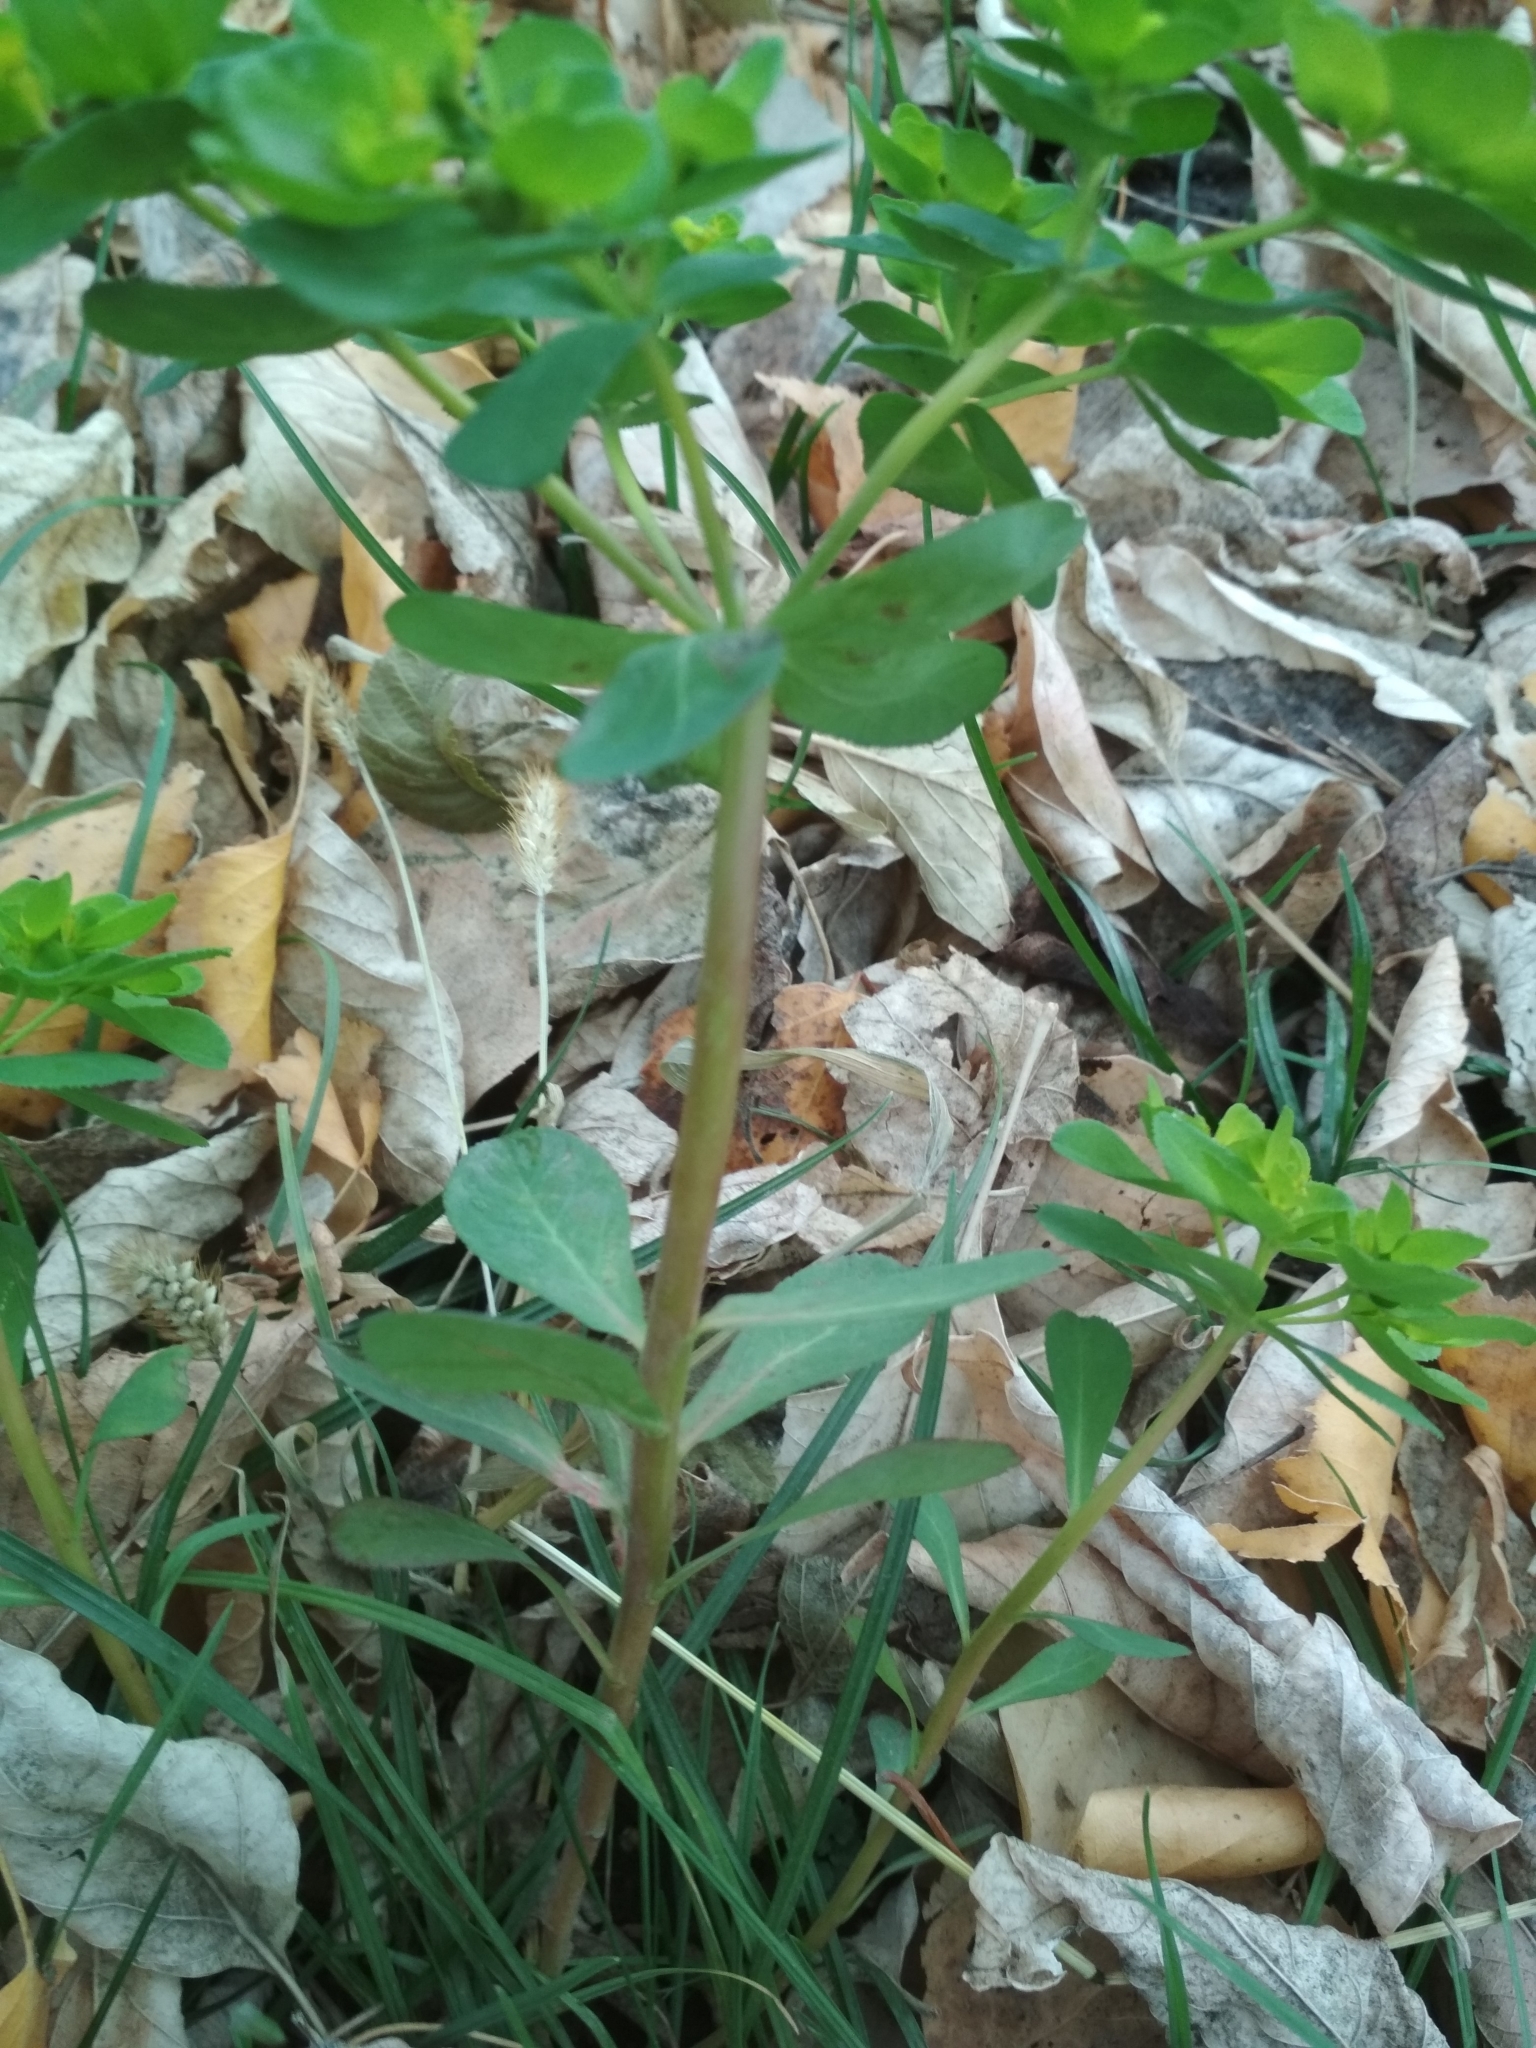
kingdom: Plantae
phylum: Tracheophyta
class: Magnoliopsida
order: Malpighiales
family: Euphorbiaceae
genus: Euphorbia
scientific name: Euphorbia helioscopia
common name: Sun spurge
